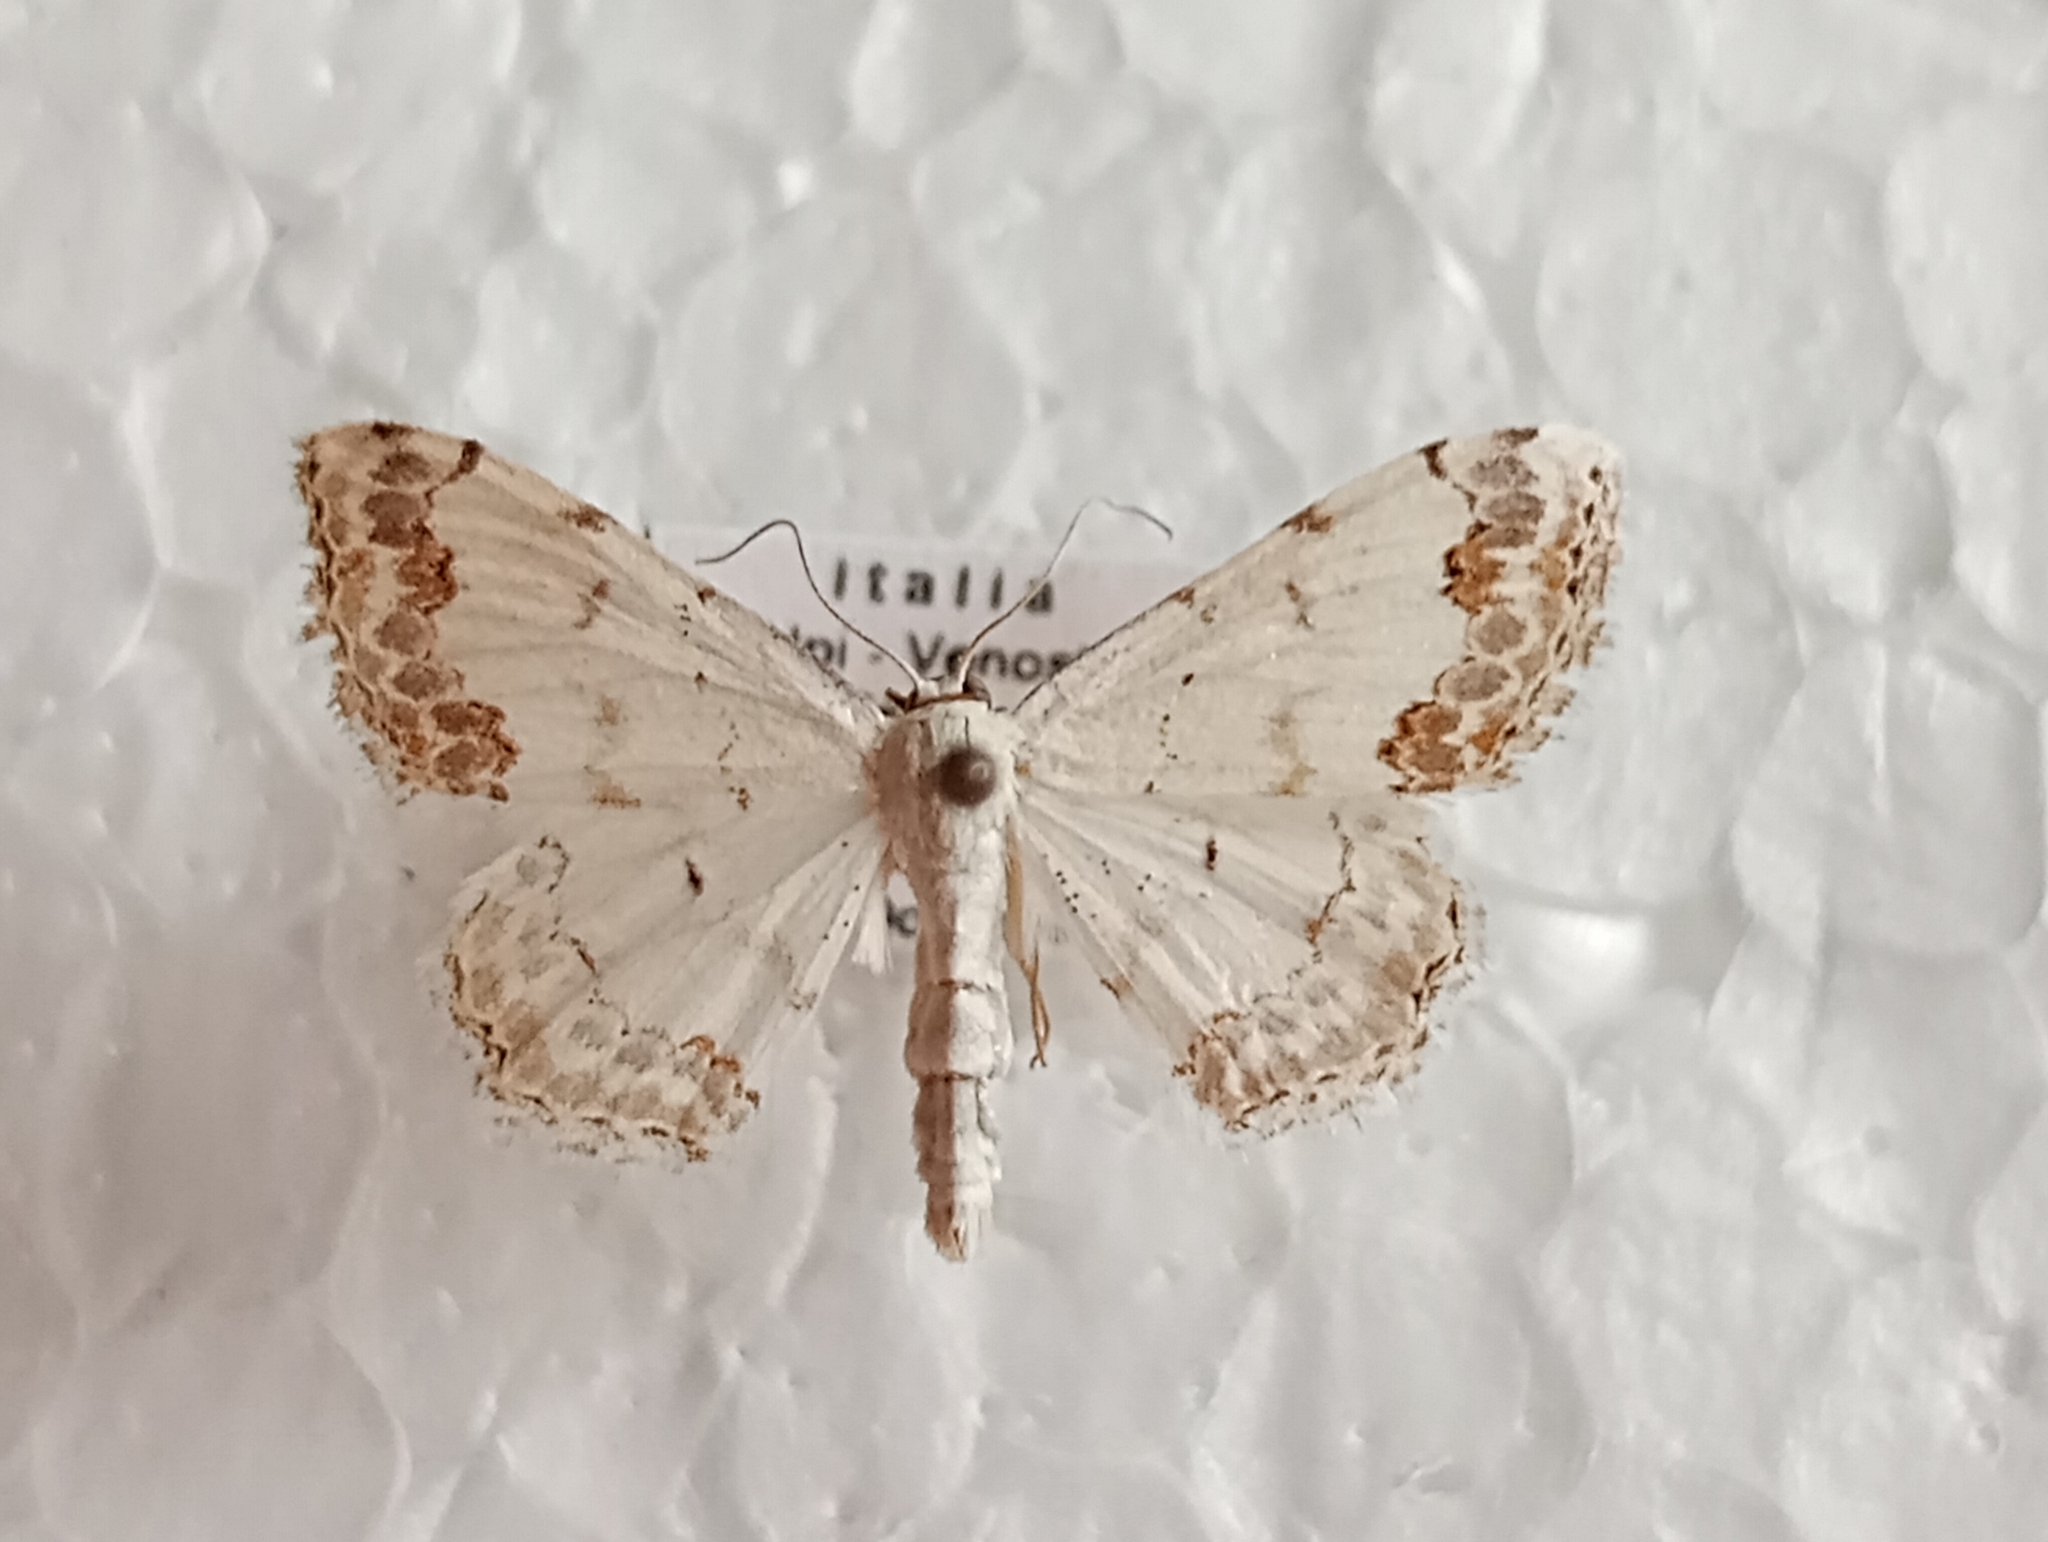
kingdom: Animalia
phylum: Arthropoda
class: Insecta
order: Lepidoptera
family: Geometridae
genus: Scopula
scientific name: Scopula decorata
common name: Middle lace border
